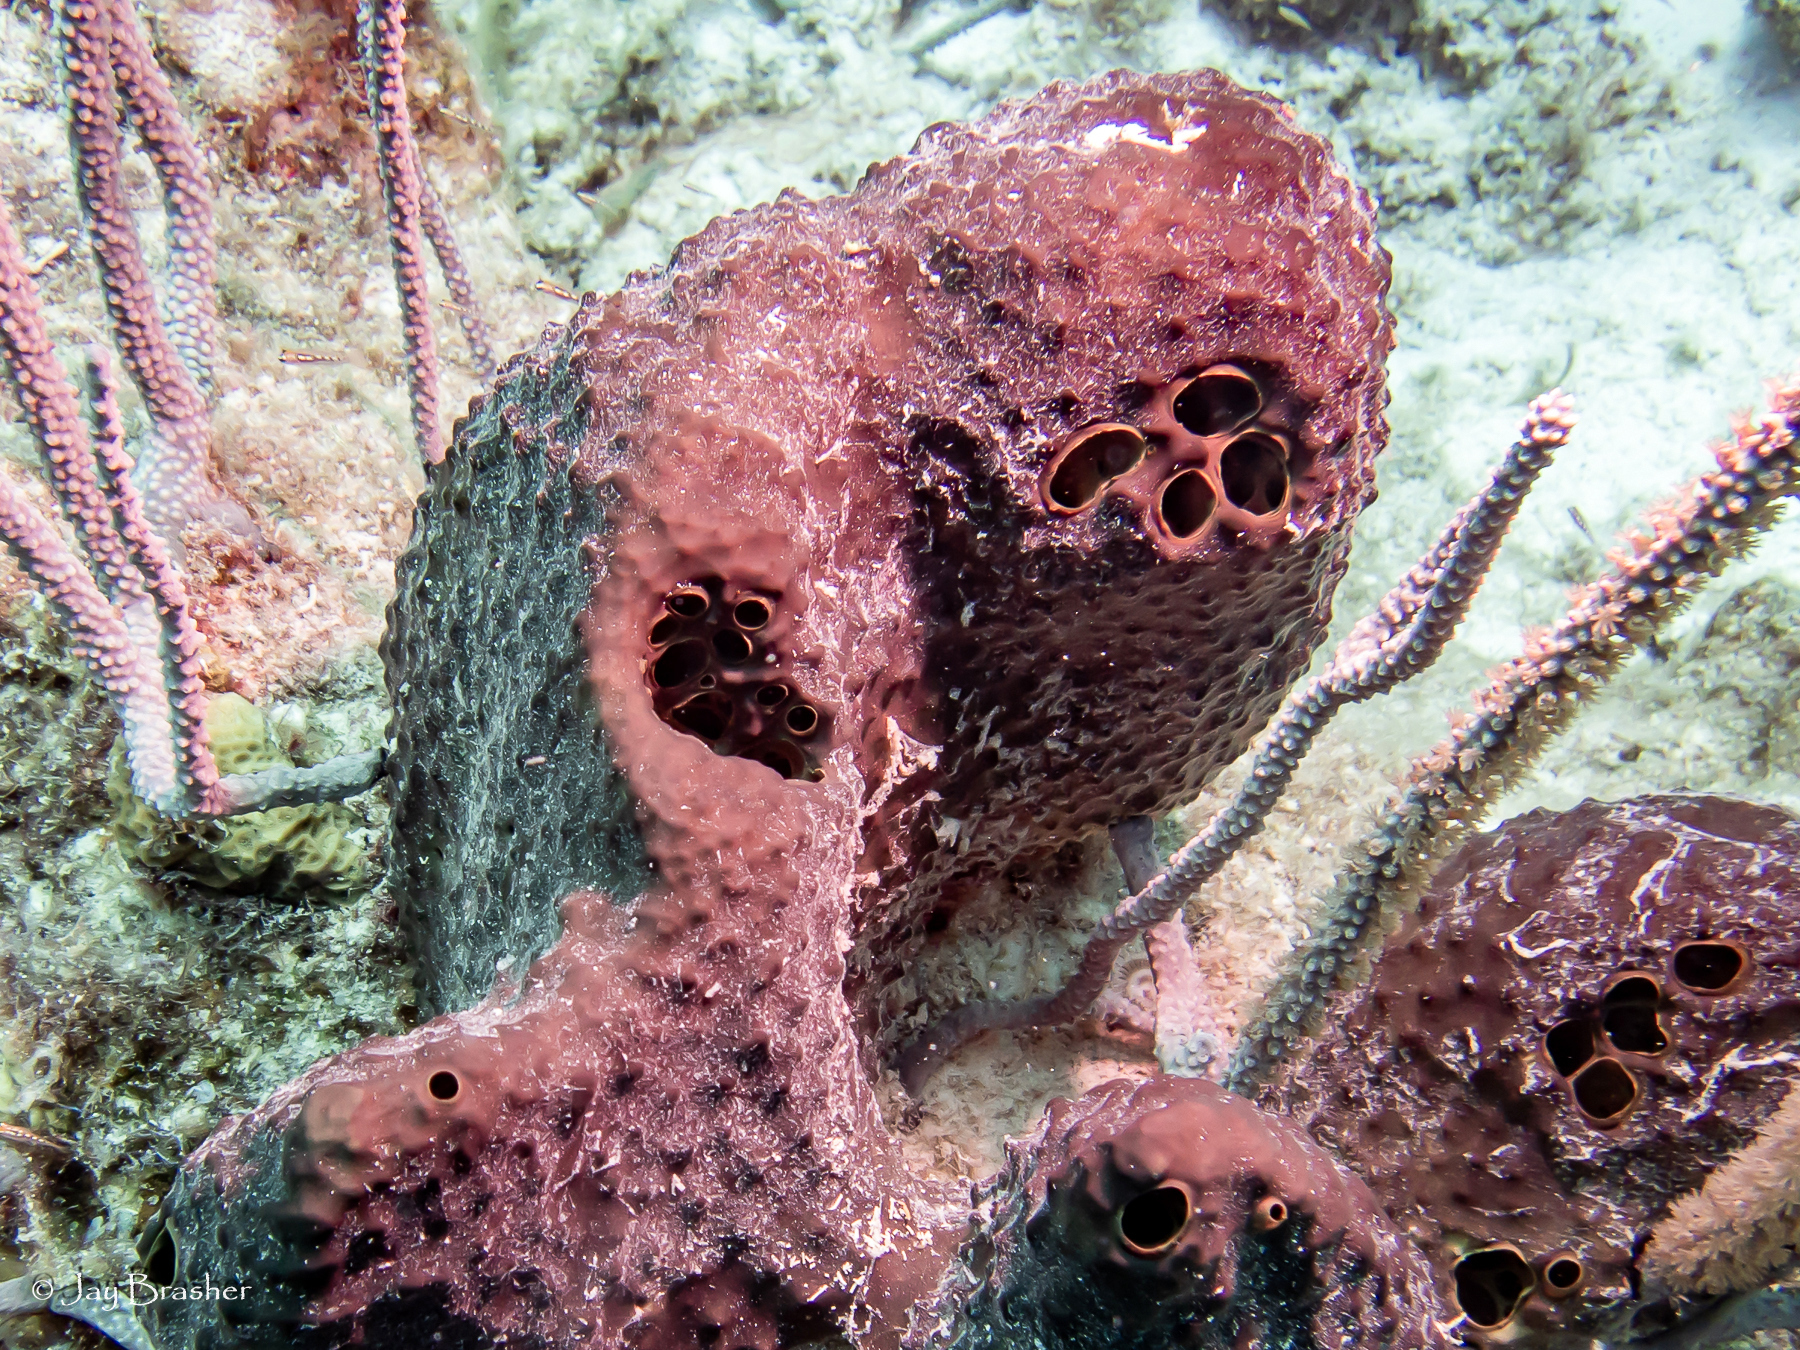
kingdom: Animalia
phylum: Porifera
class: Demospongiae
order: Dictyoceratida
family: Thorectidae
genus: Smenospongia
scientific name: Smenospongia conulosa
